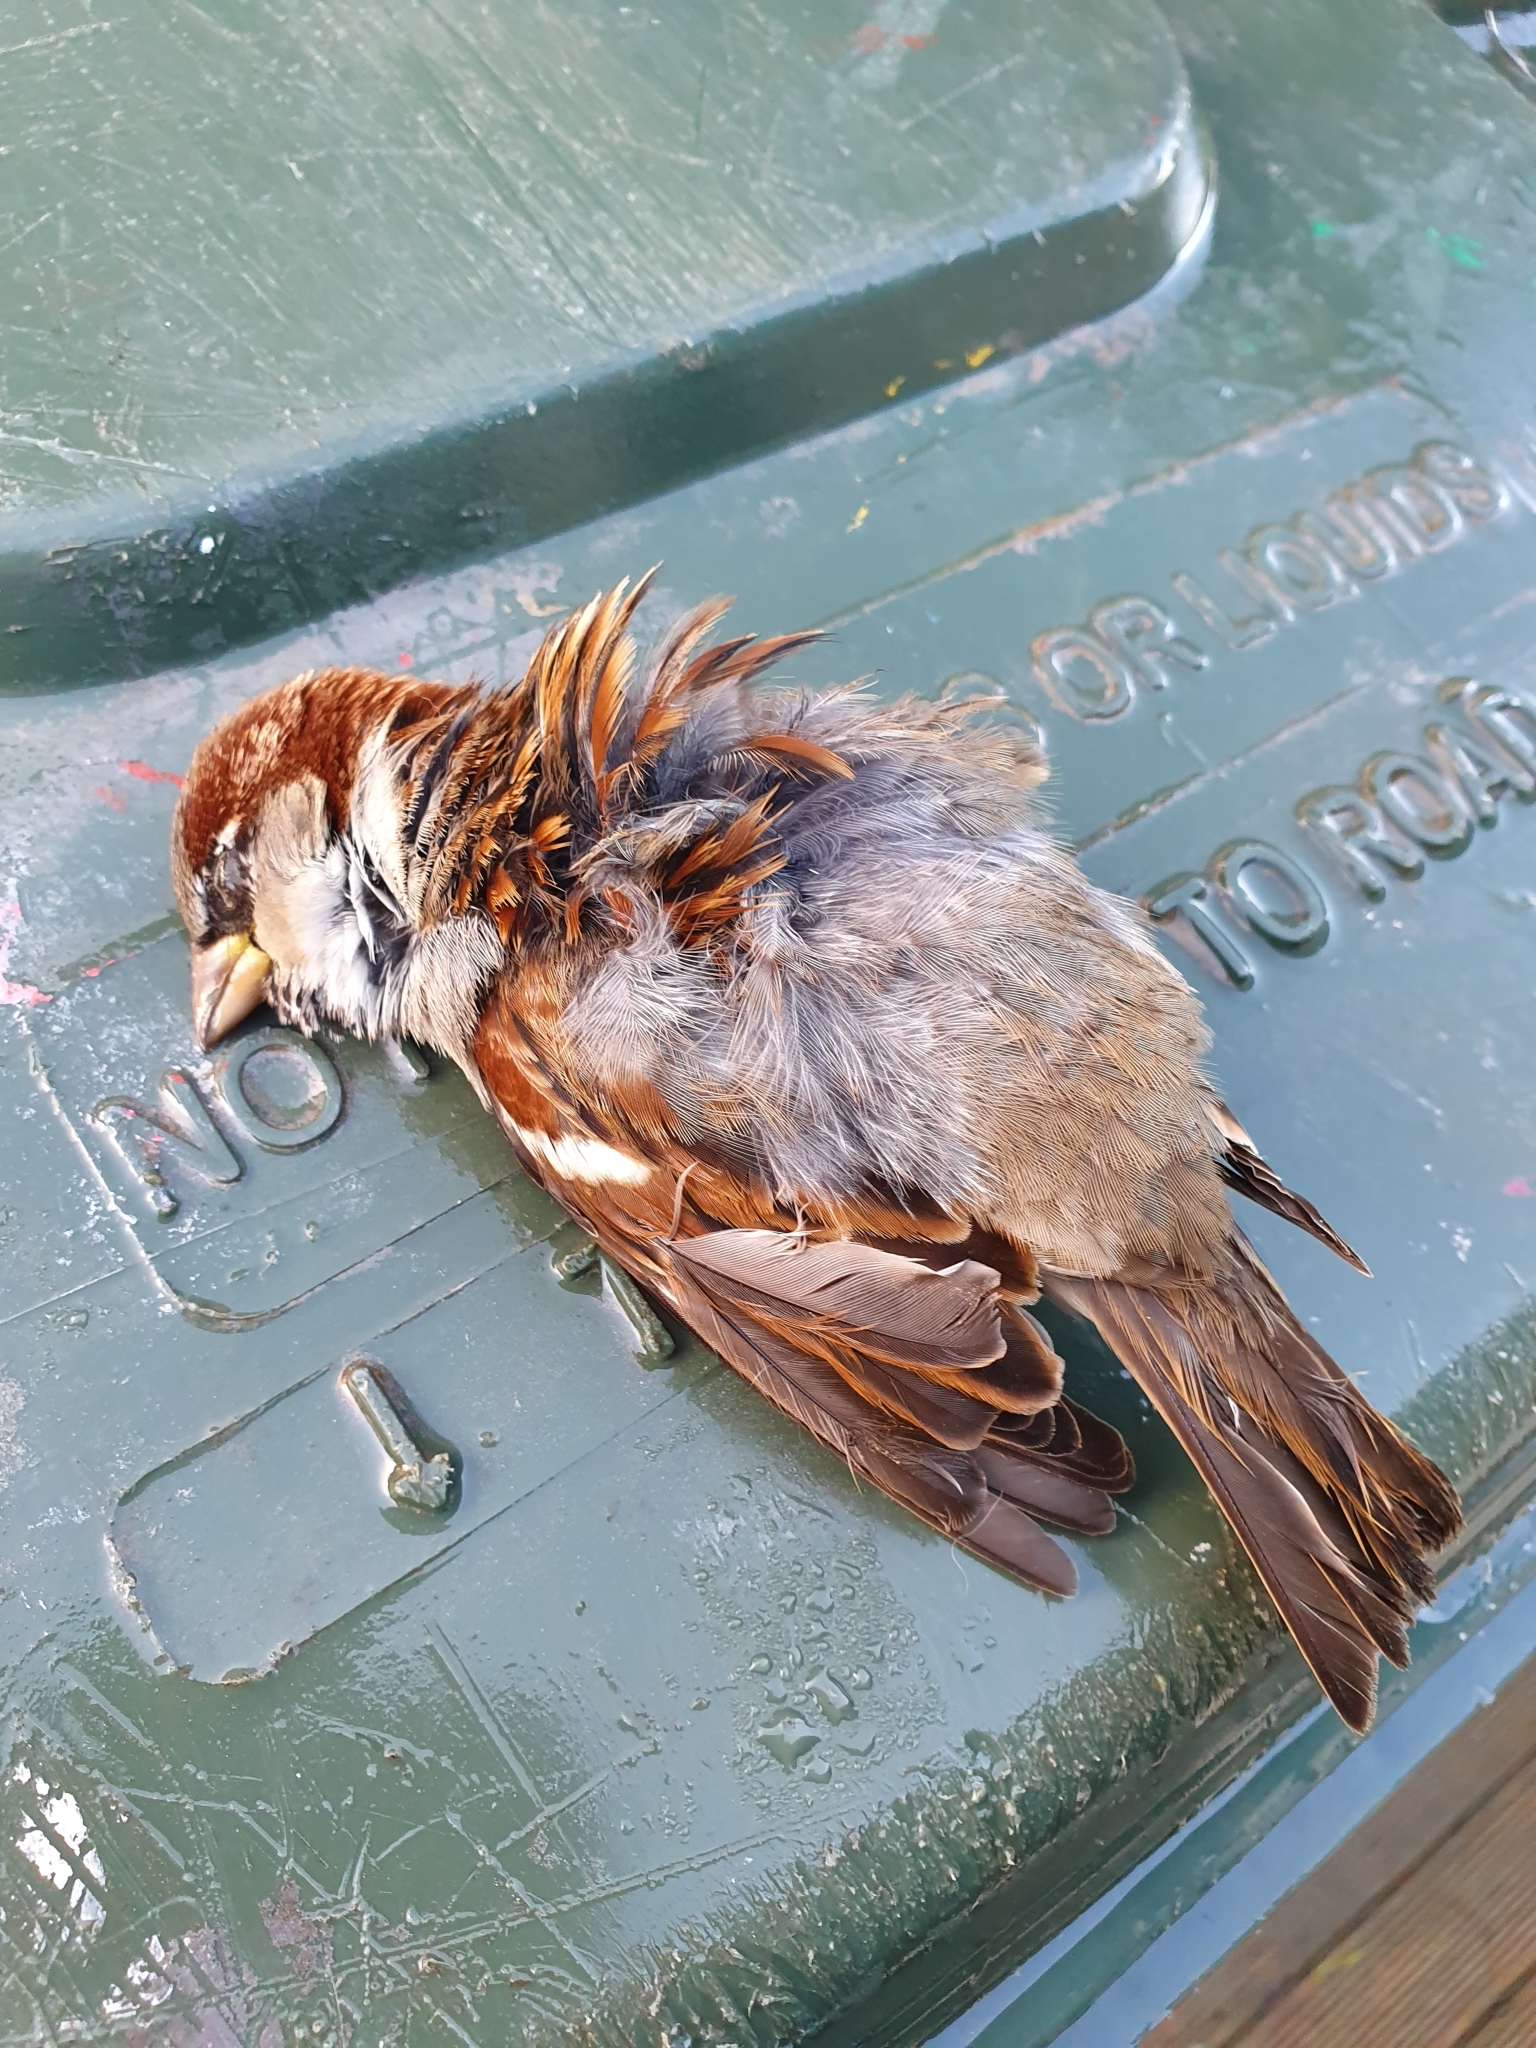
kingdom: Animalia
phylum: Chordata
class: Aves
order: Passeriformes
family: Passeridae
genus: Passer
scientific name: Passer domesticus
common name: House sparrow
